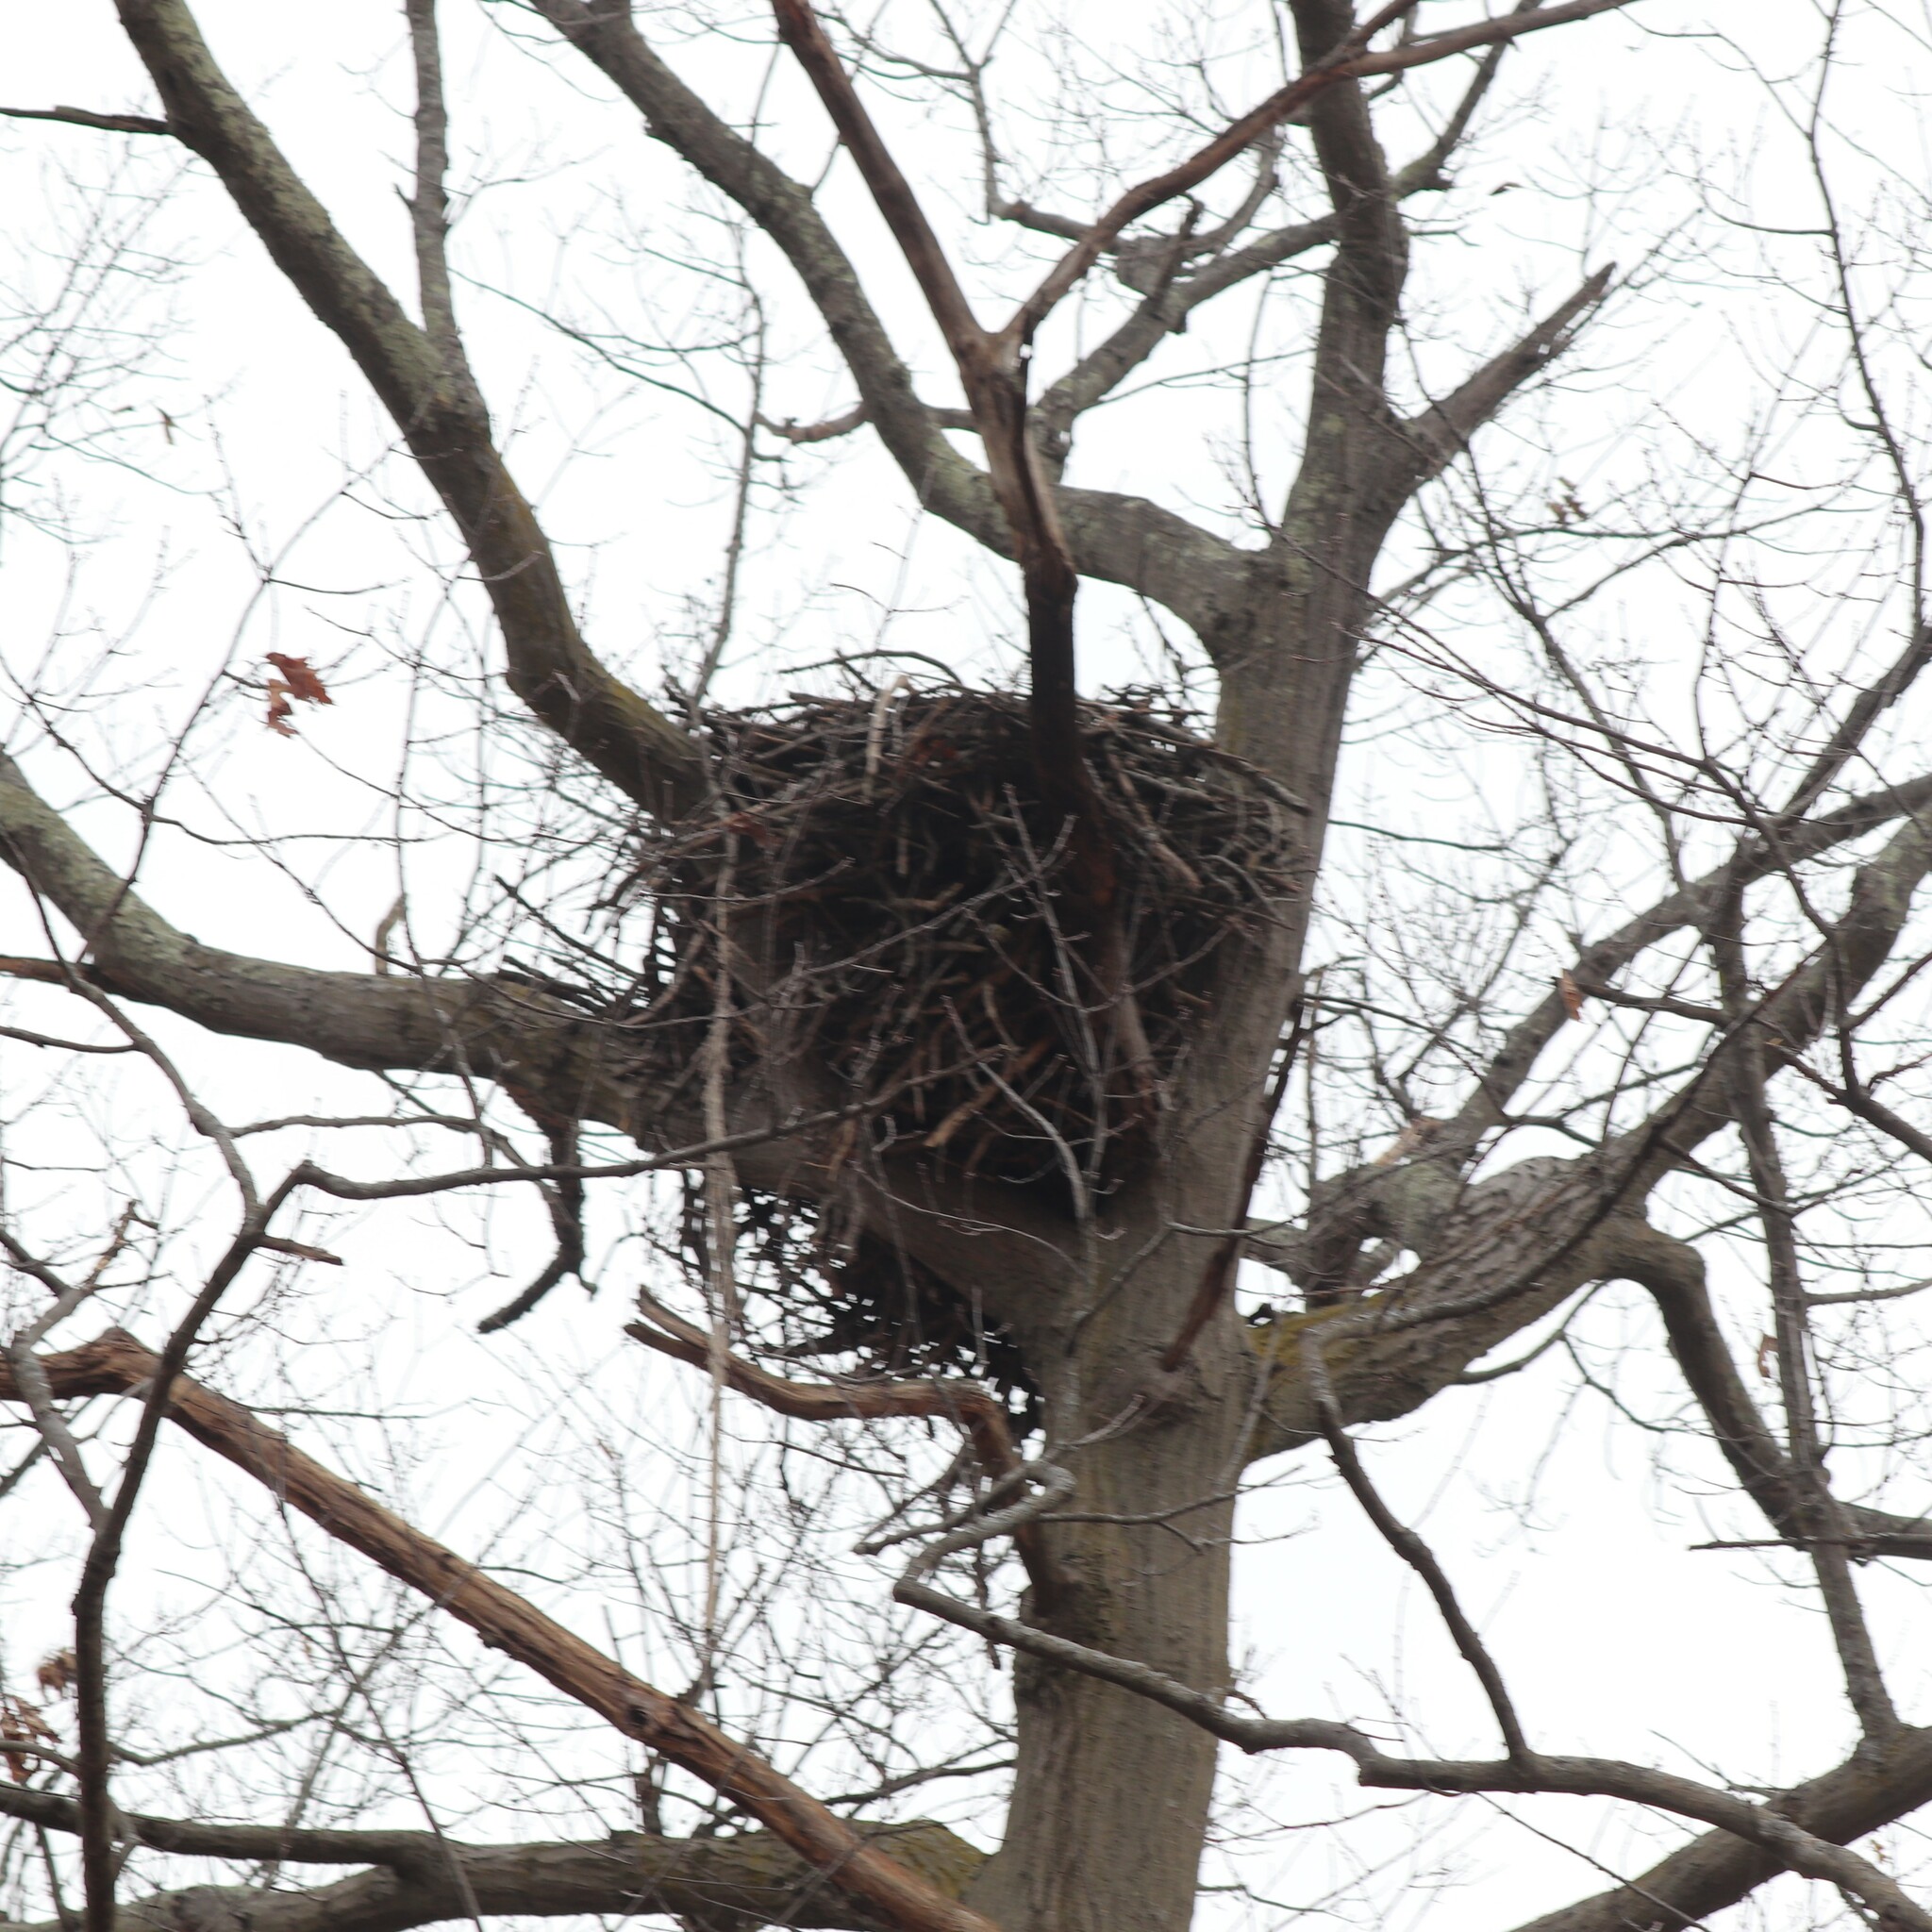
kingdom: Animalia
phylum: Chordata
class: Aves
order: Accipitriformes
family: Accipitridae
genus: Haliaeetus
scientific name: Haliaeetus leucocephalus
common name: Bald eagle
